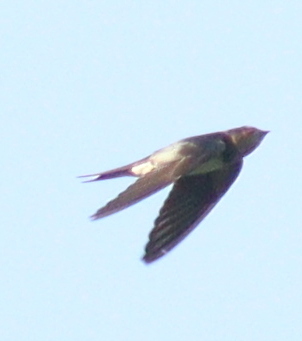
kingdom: Animalia
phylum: Chordata
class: Aves
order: Passeriformes
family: Hirundinidae
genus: Hirundo
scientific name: Hirundo rustica
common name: Barn swallow
